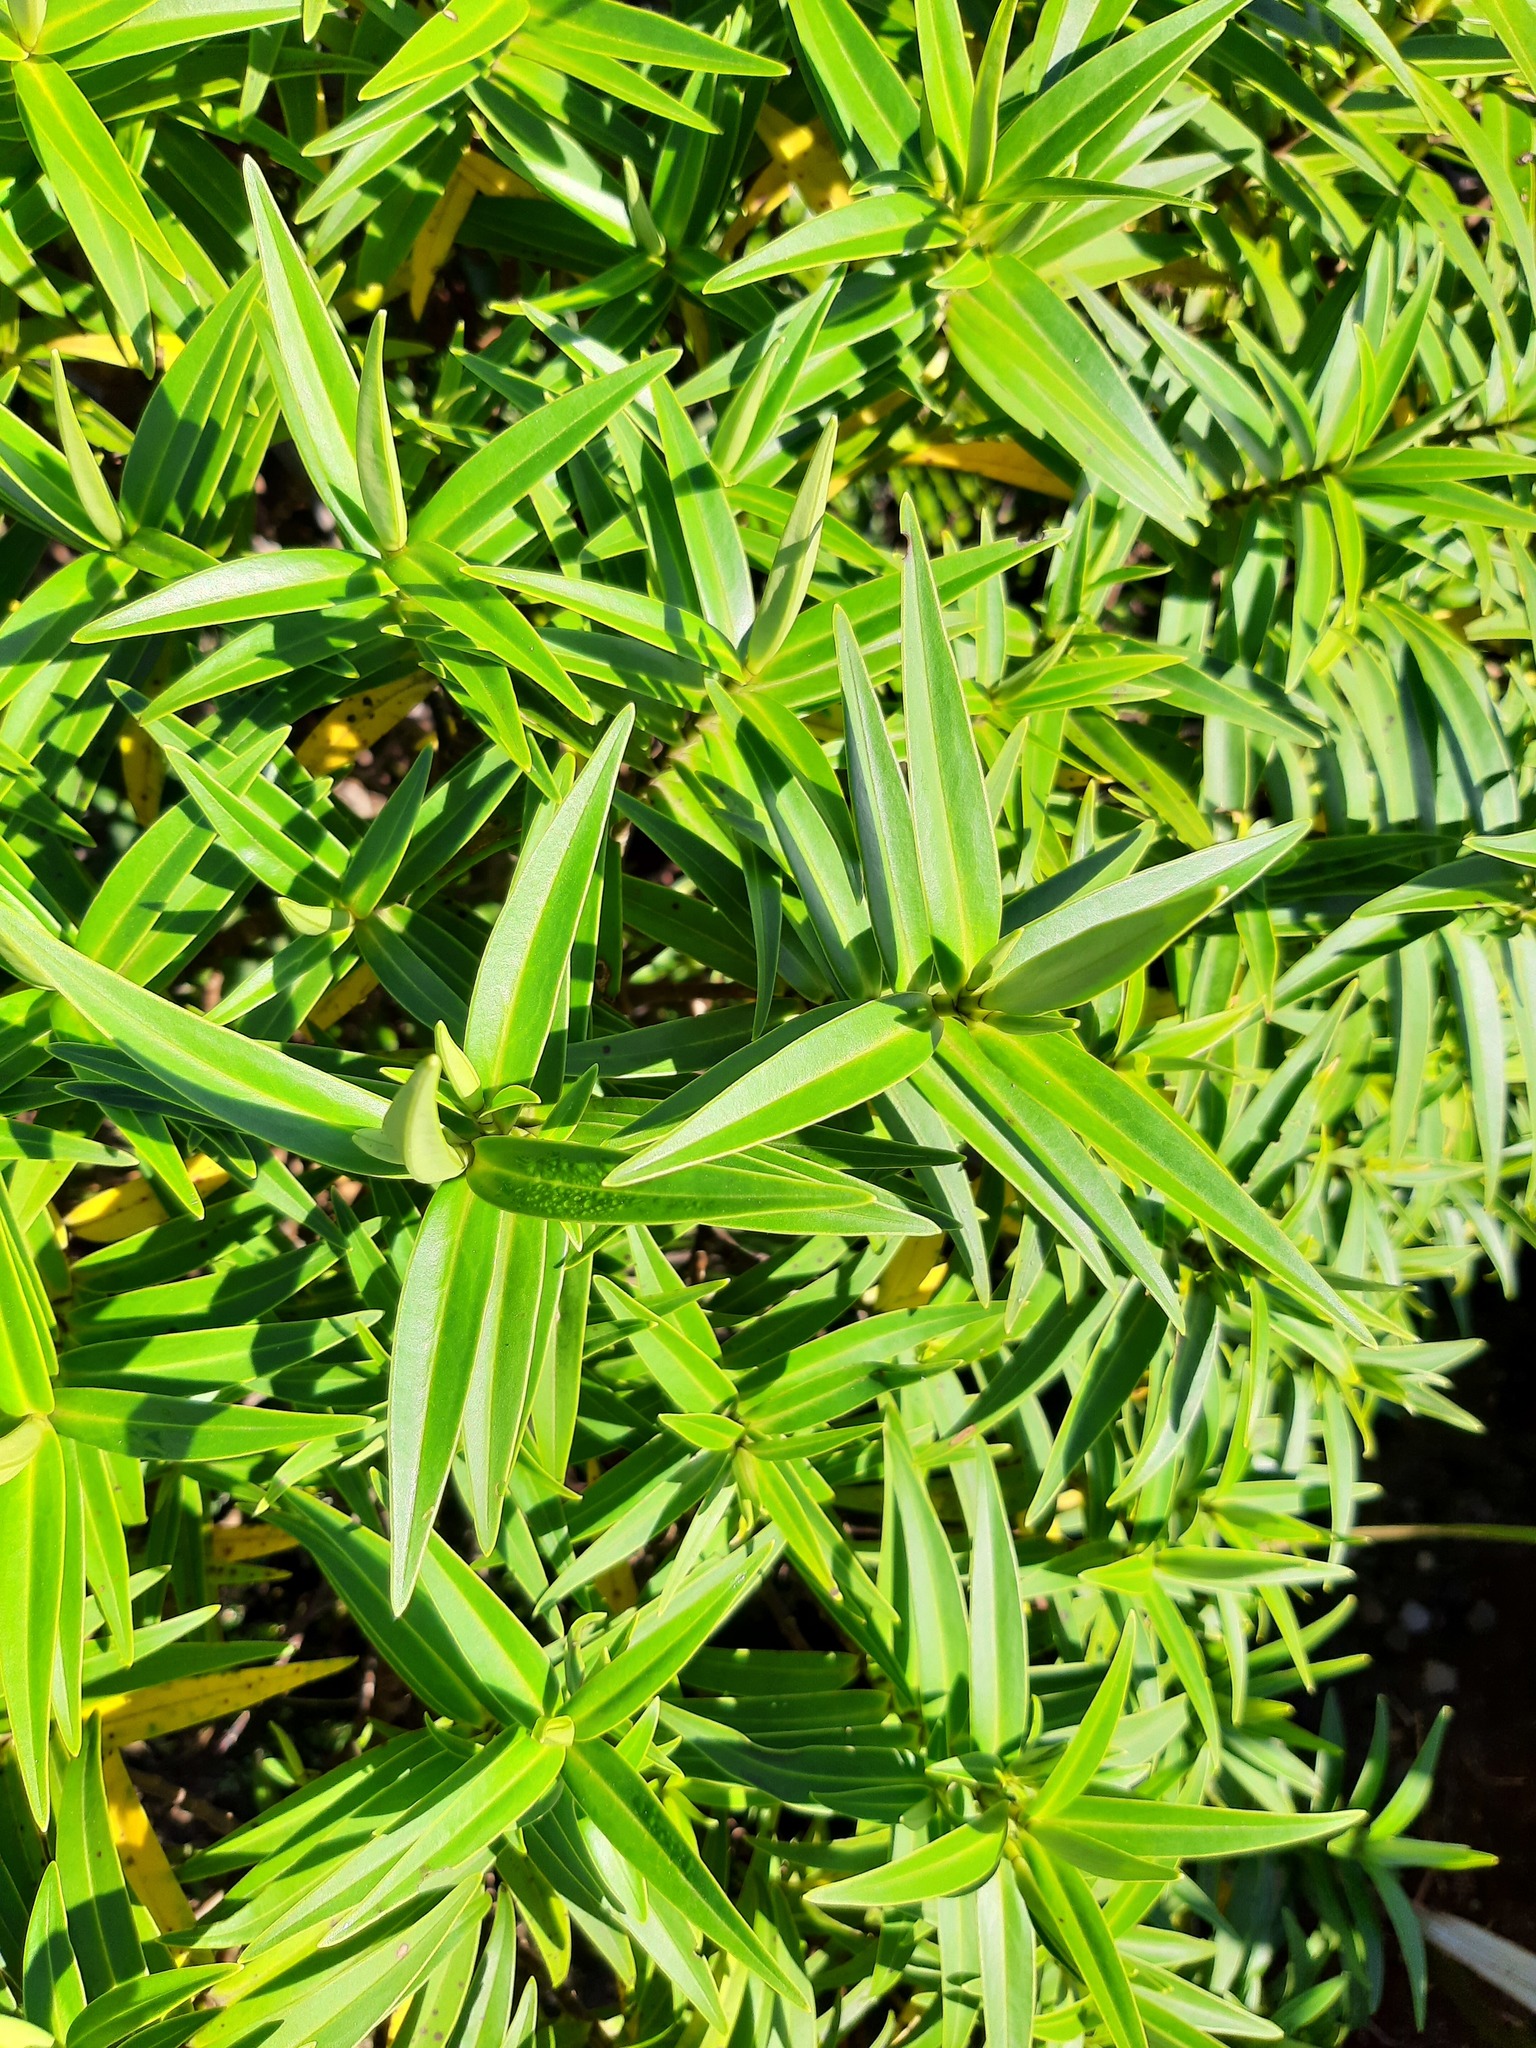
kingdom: Plantae
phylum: Tracheophyta
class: Magnoliopsida
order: Lamiales
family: Plantaginaceae
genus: Veronica
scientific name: Veronica stricta
